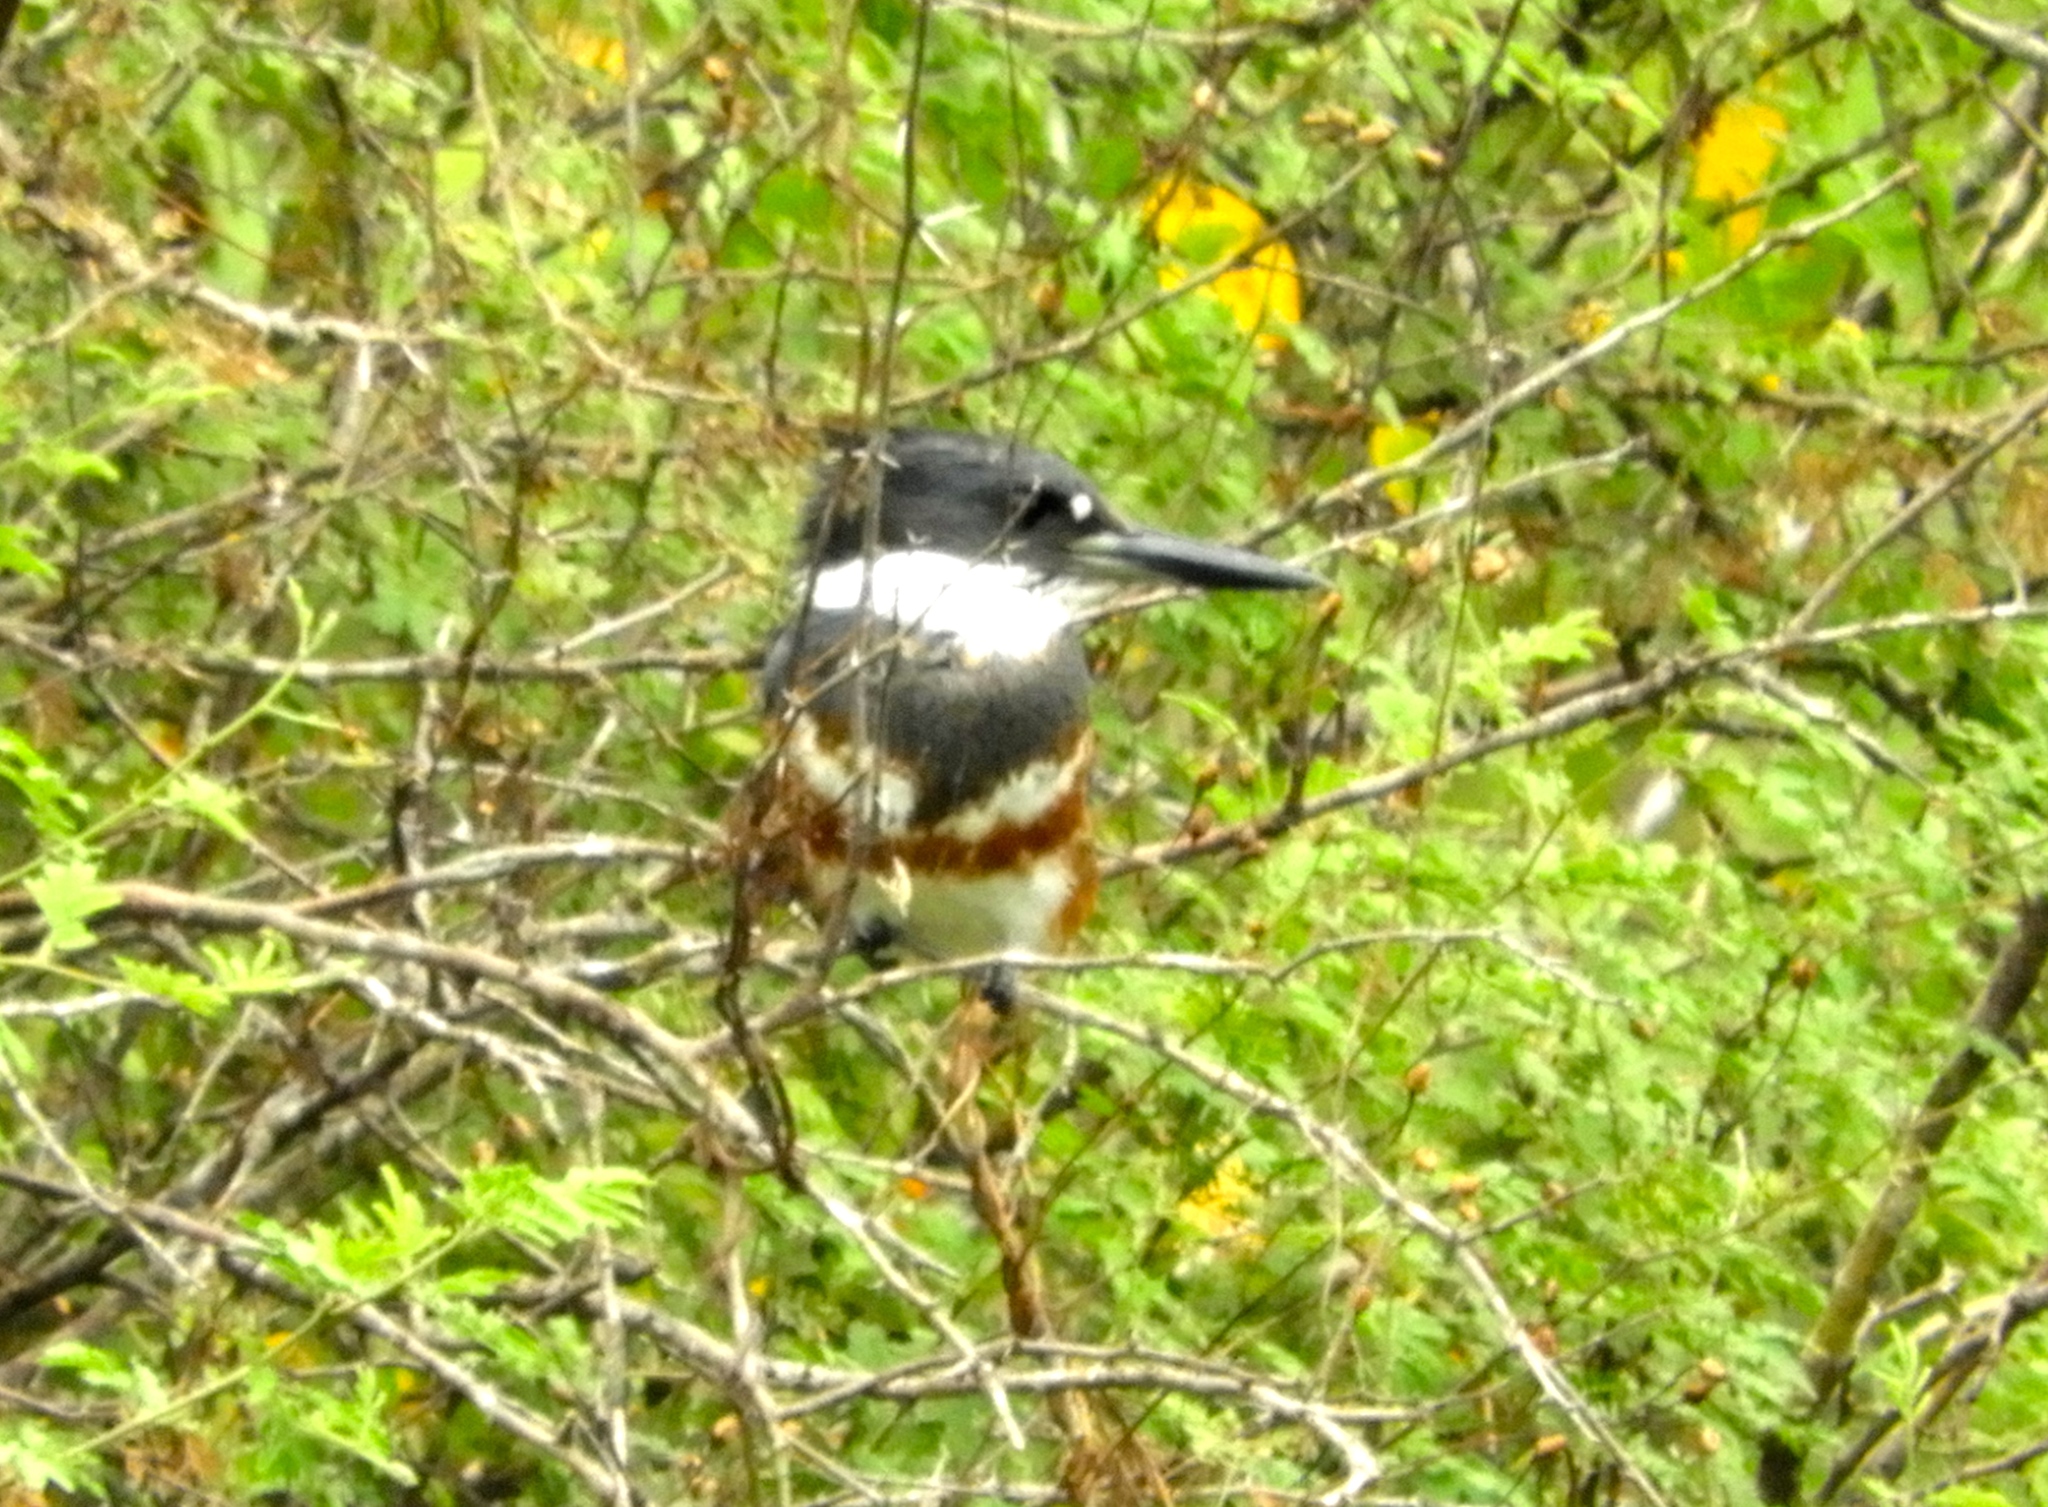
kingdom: Animalia
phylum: Chordata
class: Aves
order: Coraciiformes
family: Alcedinidae
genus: Megaceryle
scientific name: Megaceryle alcyon
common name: Belted kingfisher
